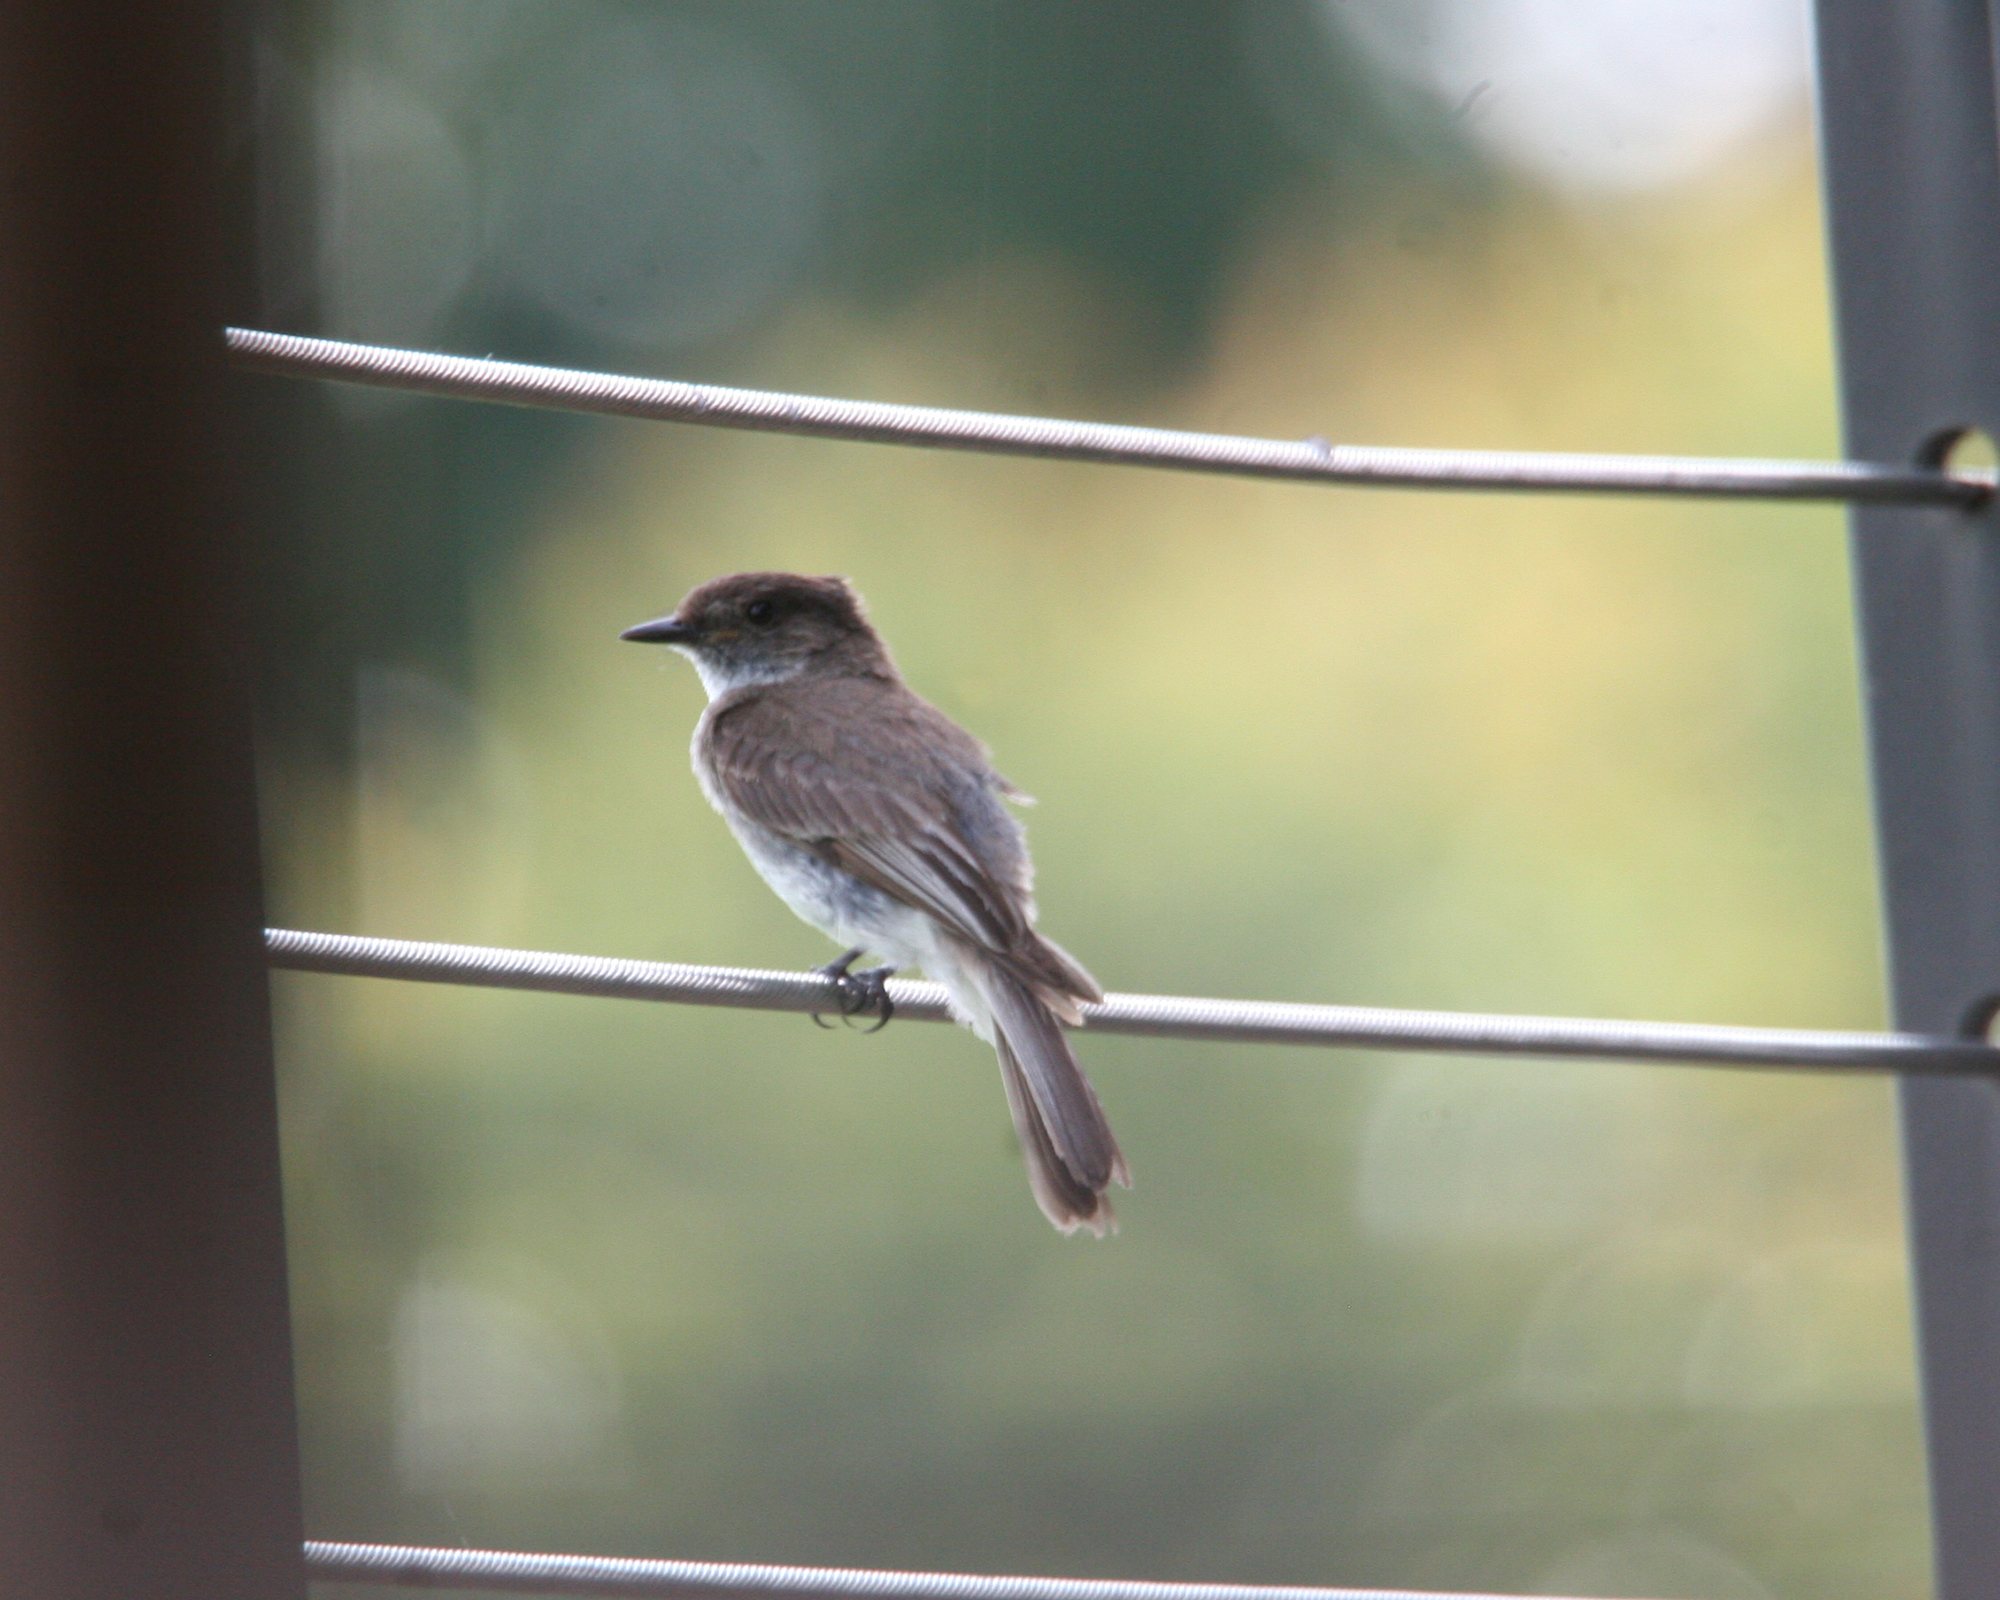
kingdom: Animalia
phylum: Chordata
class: Aves
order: Passeriformes
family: Tyrannidae
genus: Sayornis
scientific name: Sayornis phoebe
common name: Eastern phoebe
